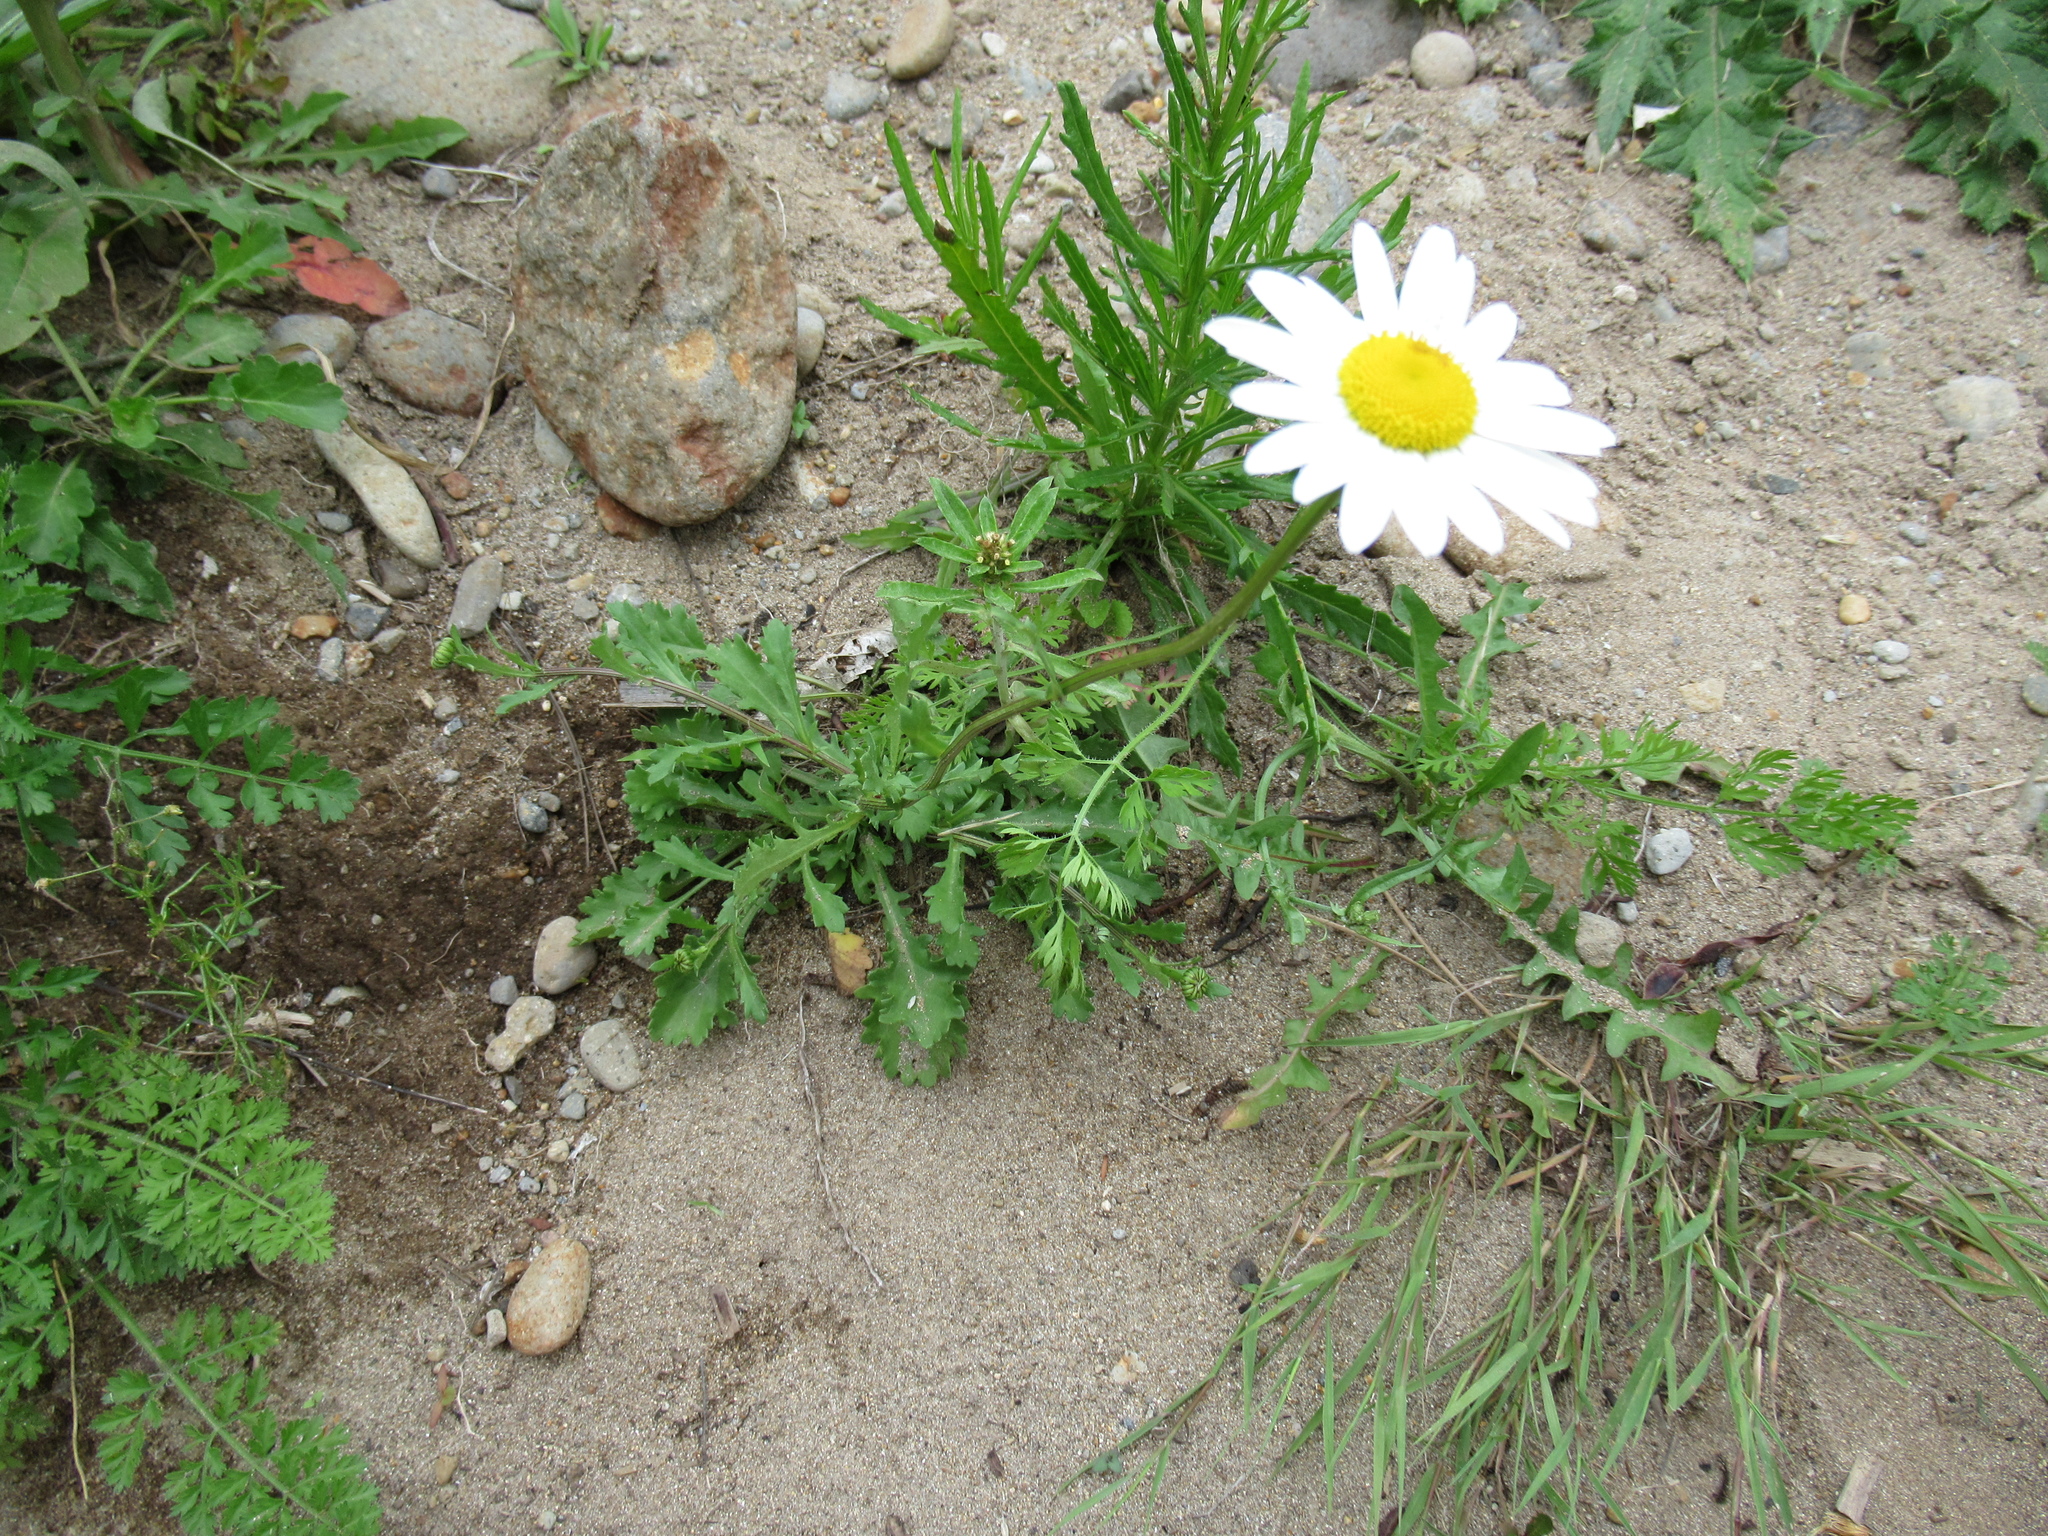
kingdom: Plantae
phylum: Tracheophyta
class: Magnoliopsida
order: Asterales
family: Asteraceae
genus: Leucanthemum
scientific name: Leucanthemum vulgare
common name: Oxeye daisy
